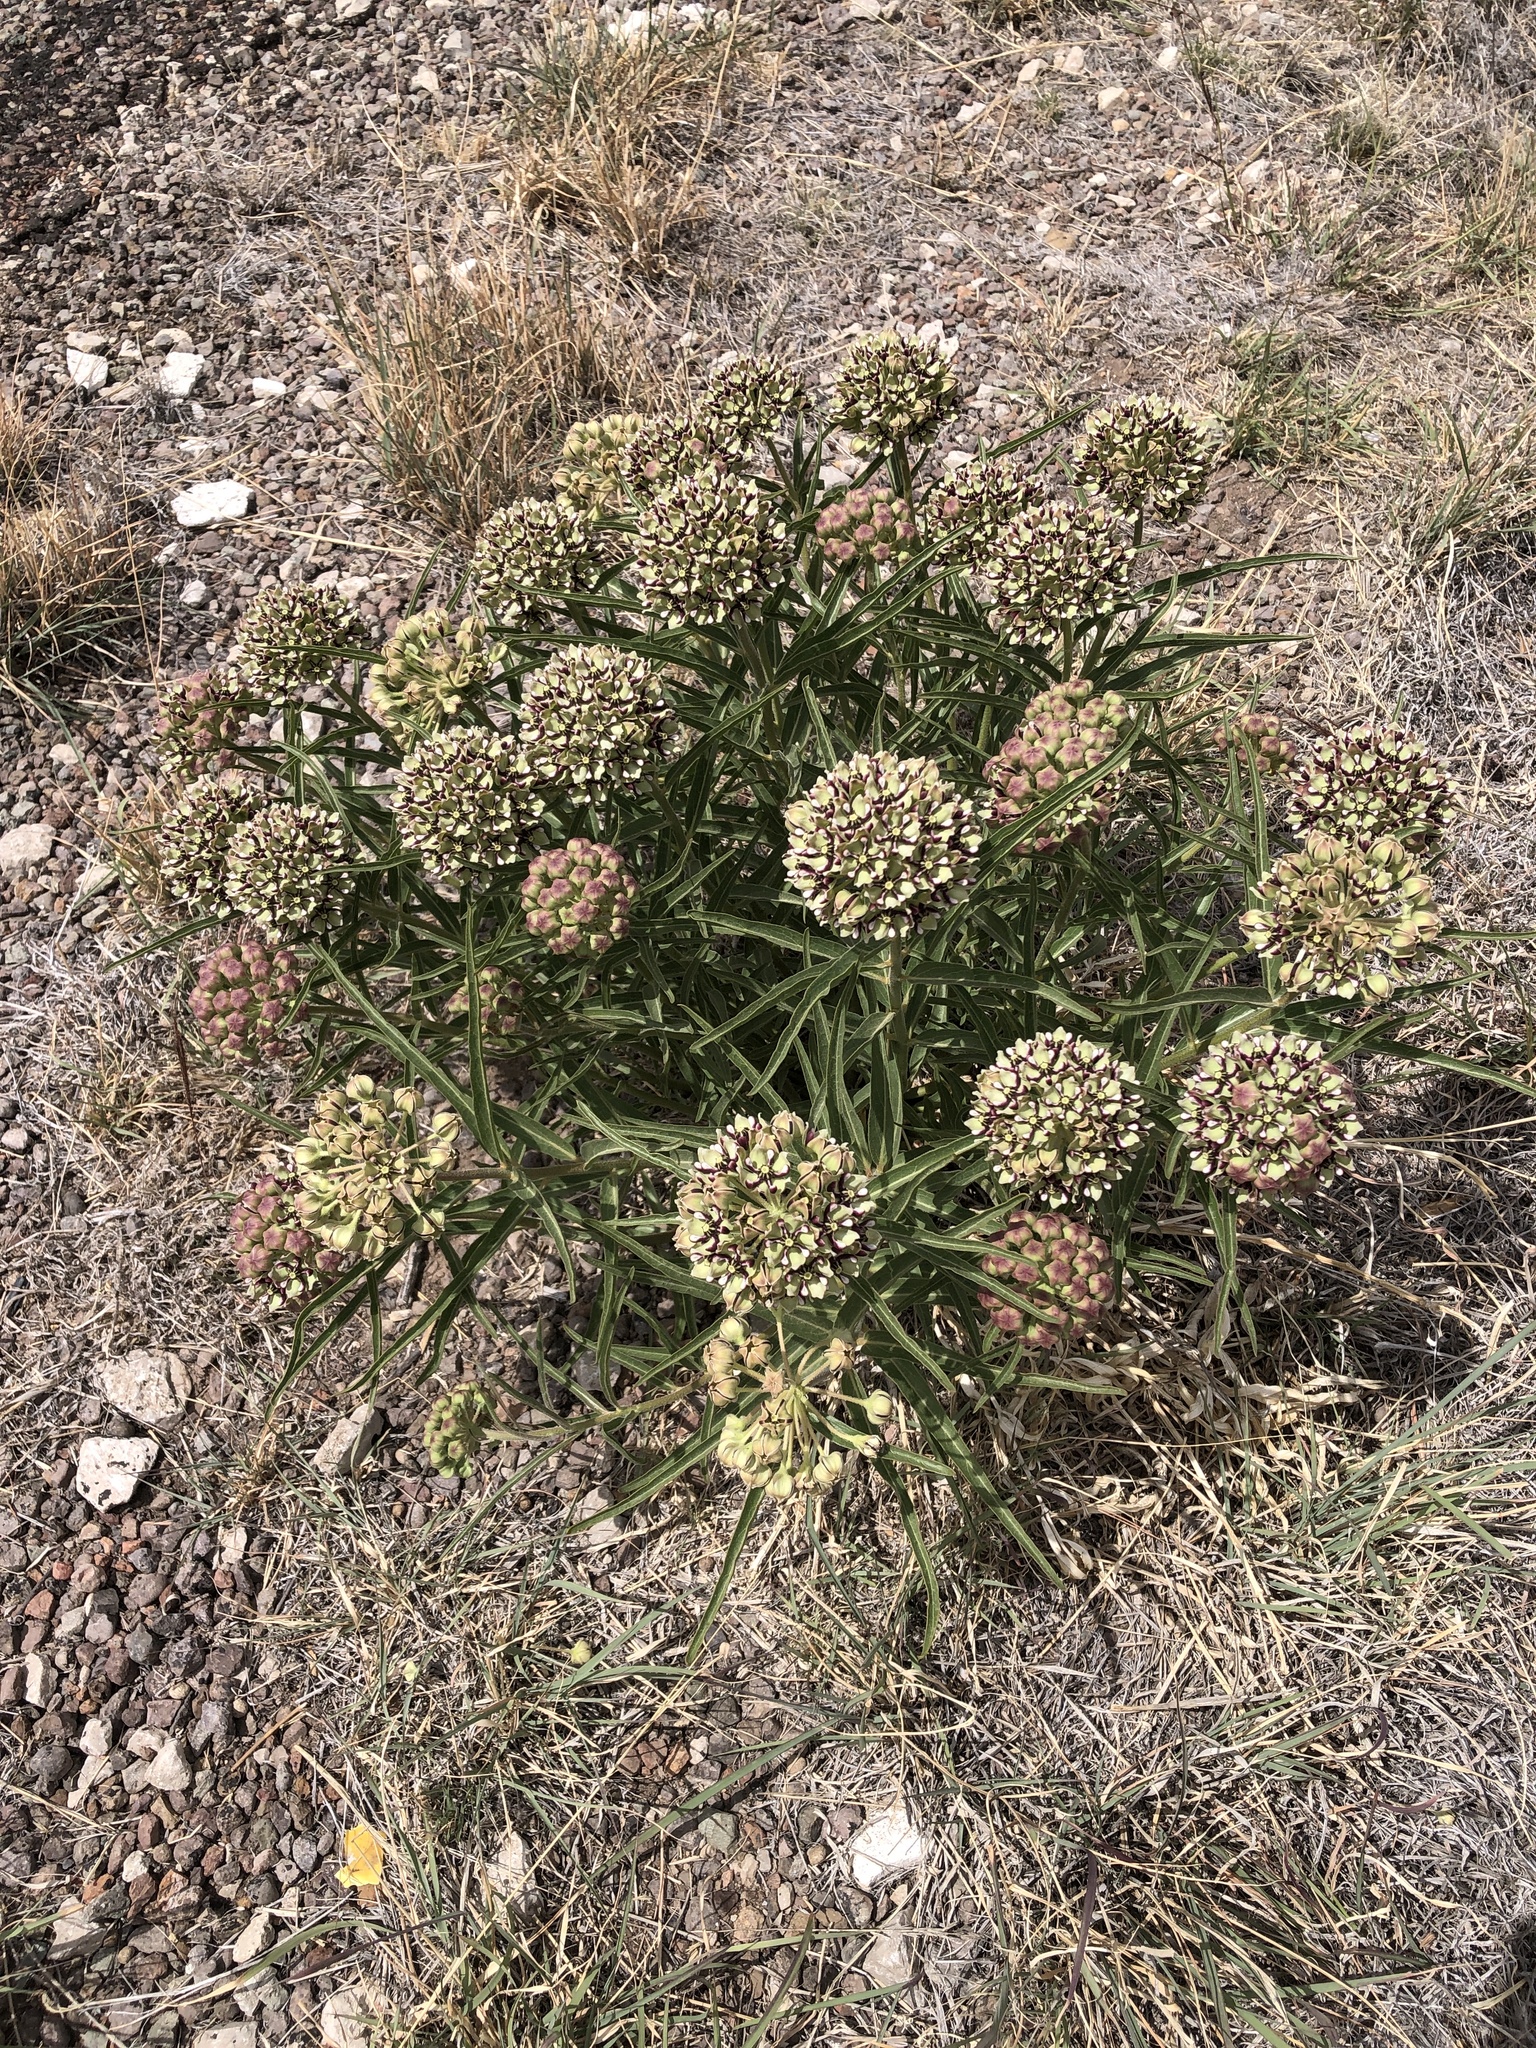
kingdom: Plantae
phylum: Tracheophyta
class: Magnoliopsida
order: Gentianales
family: Apocynaceae
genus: Asclepias
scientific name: Asclepias asperula
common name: Antelope horns
